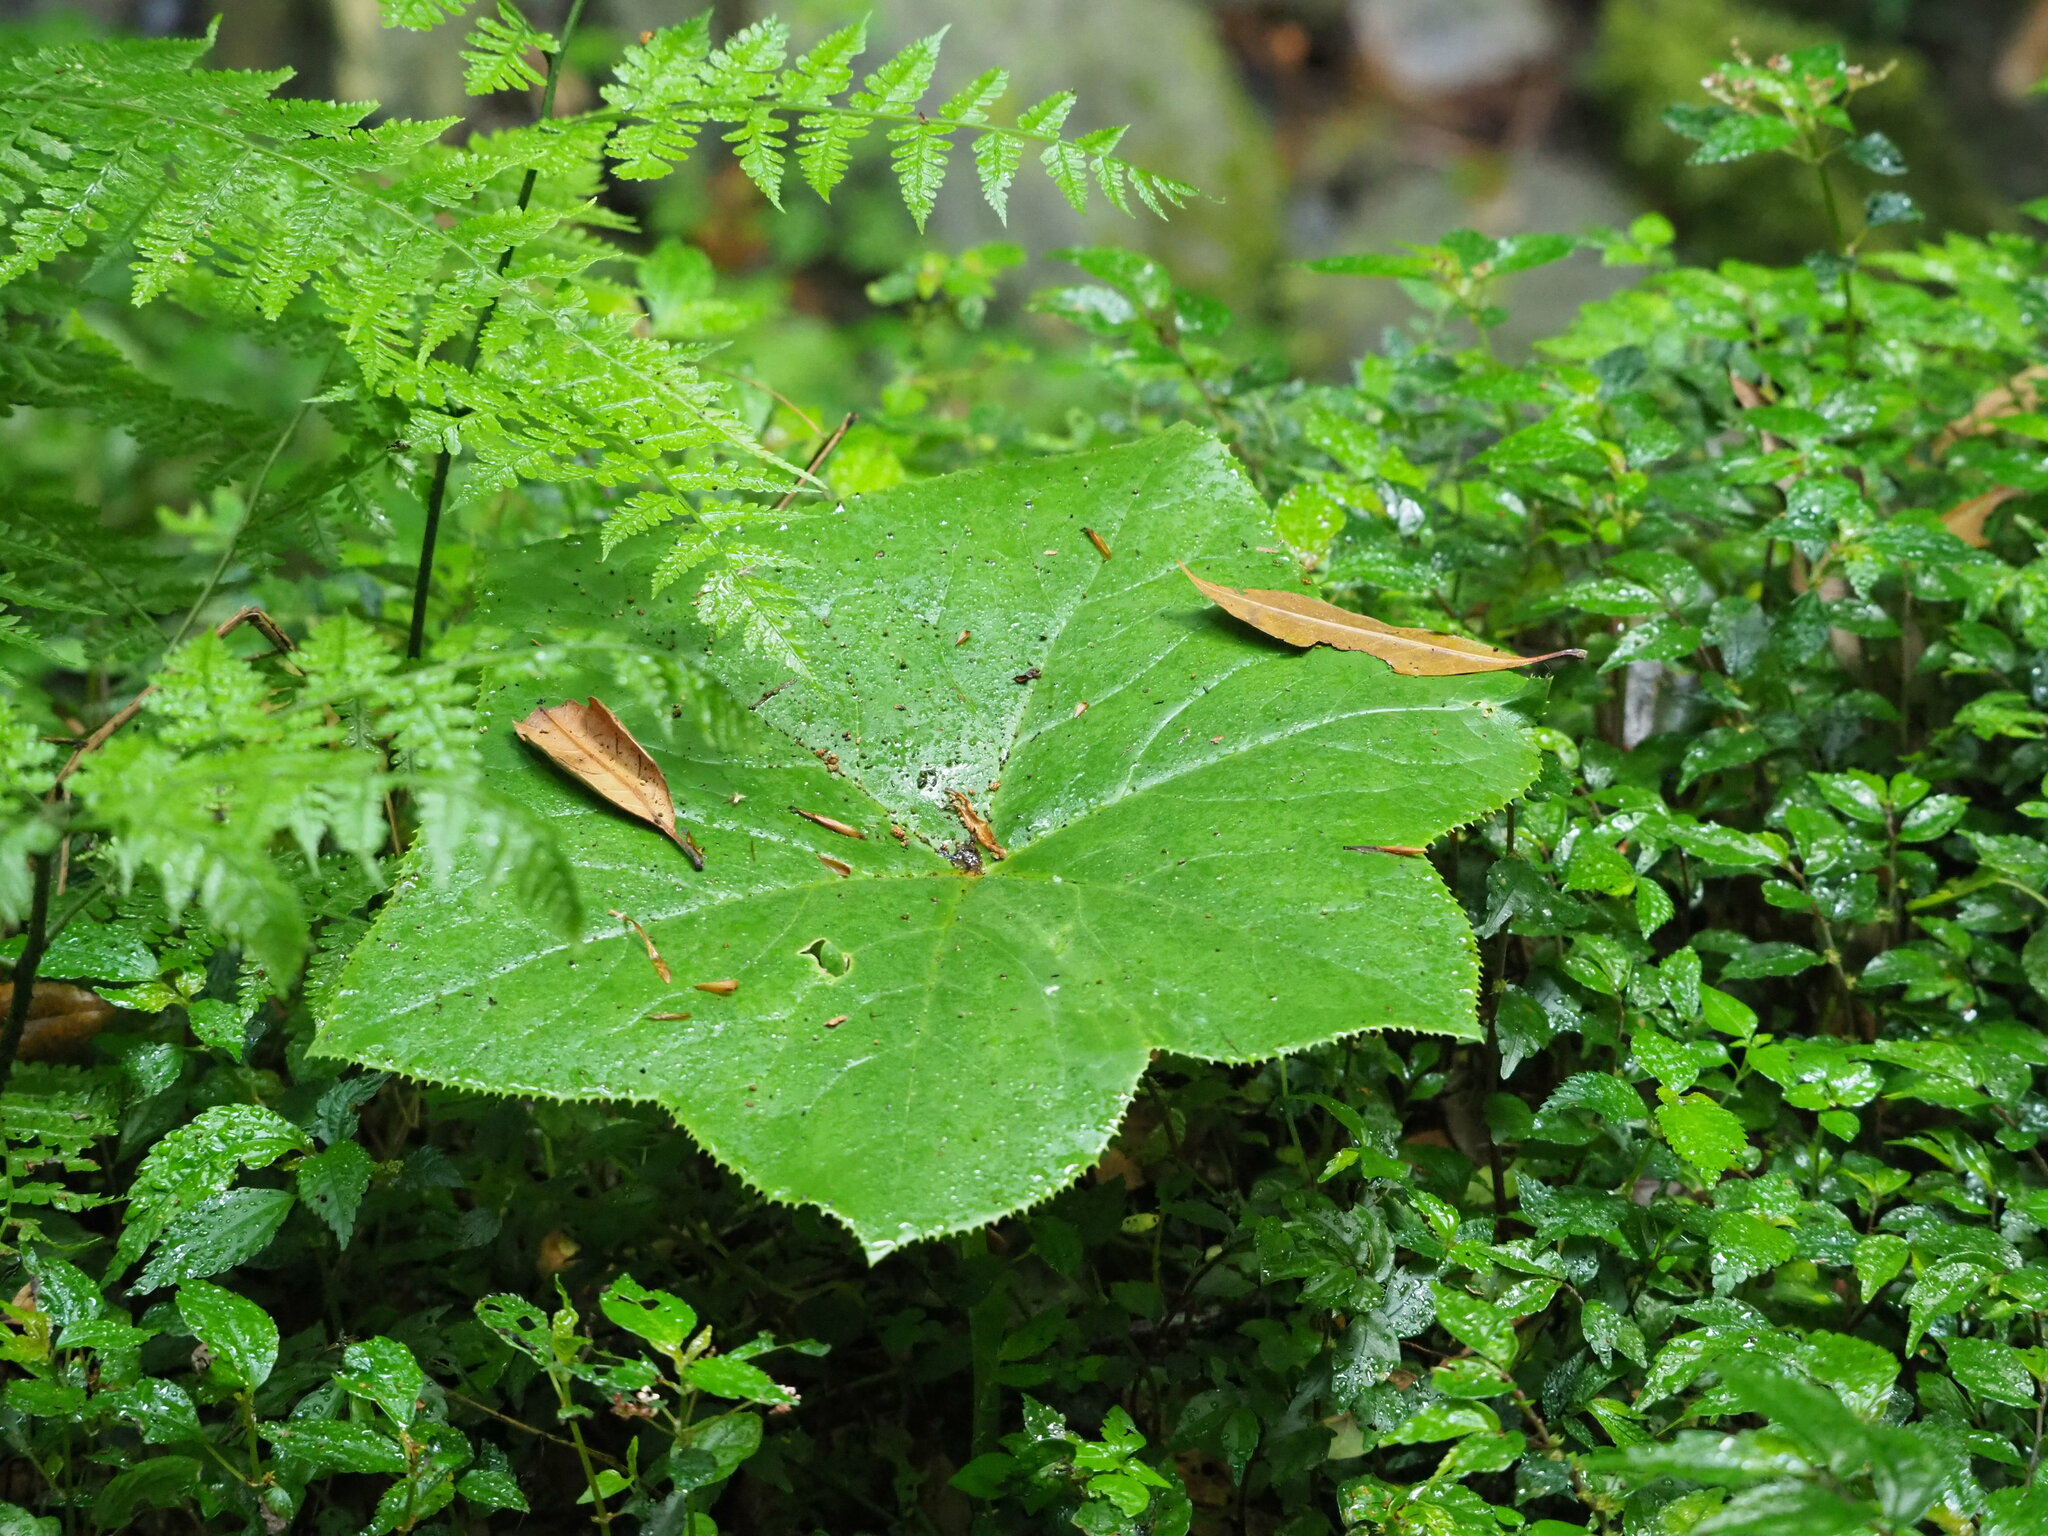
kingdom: Plantae
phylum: Tracheophyta
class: Magnoliopsida
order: Ranunculales
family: Berberidaceae
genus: Dysosma
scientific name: Dysosma pleiantha
